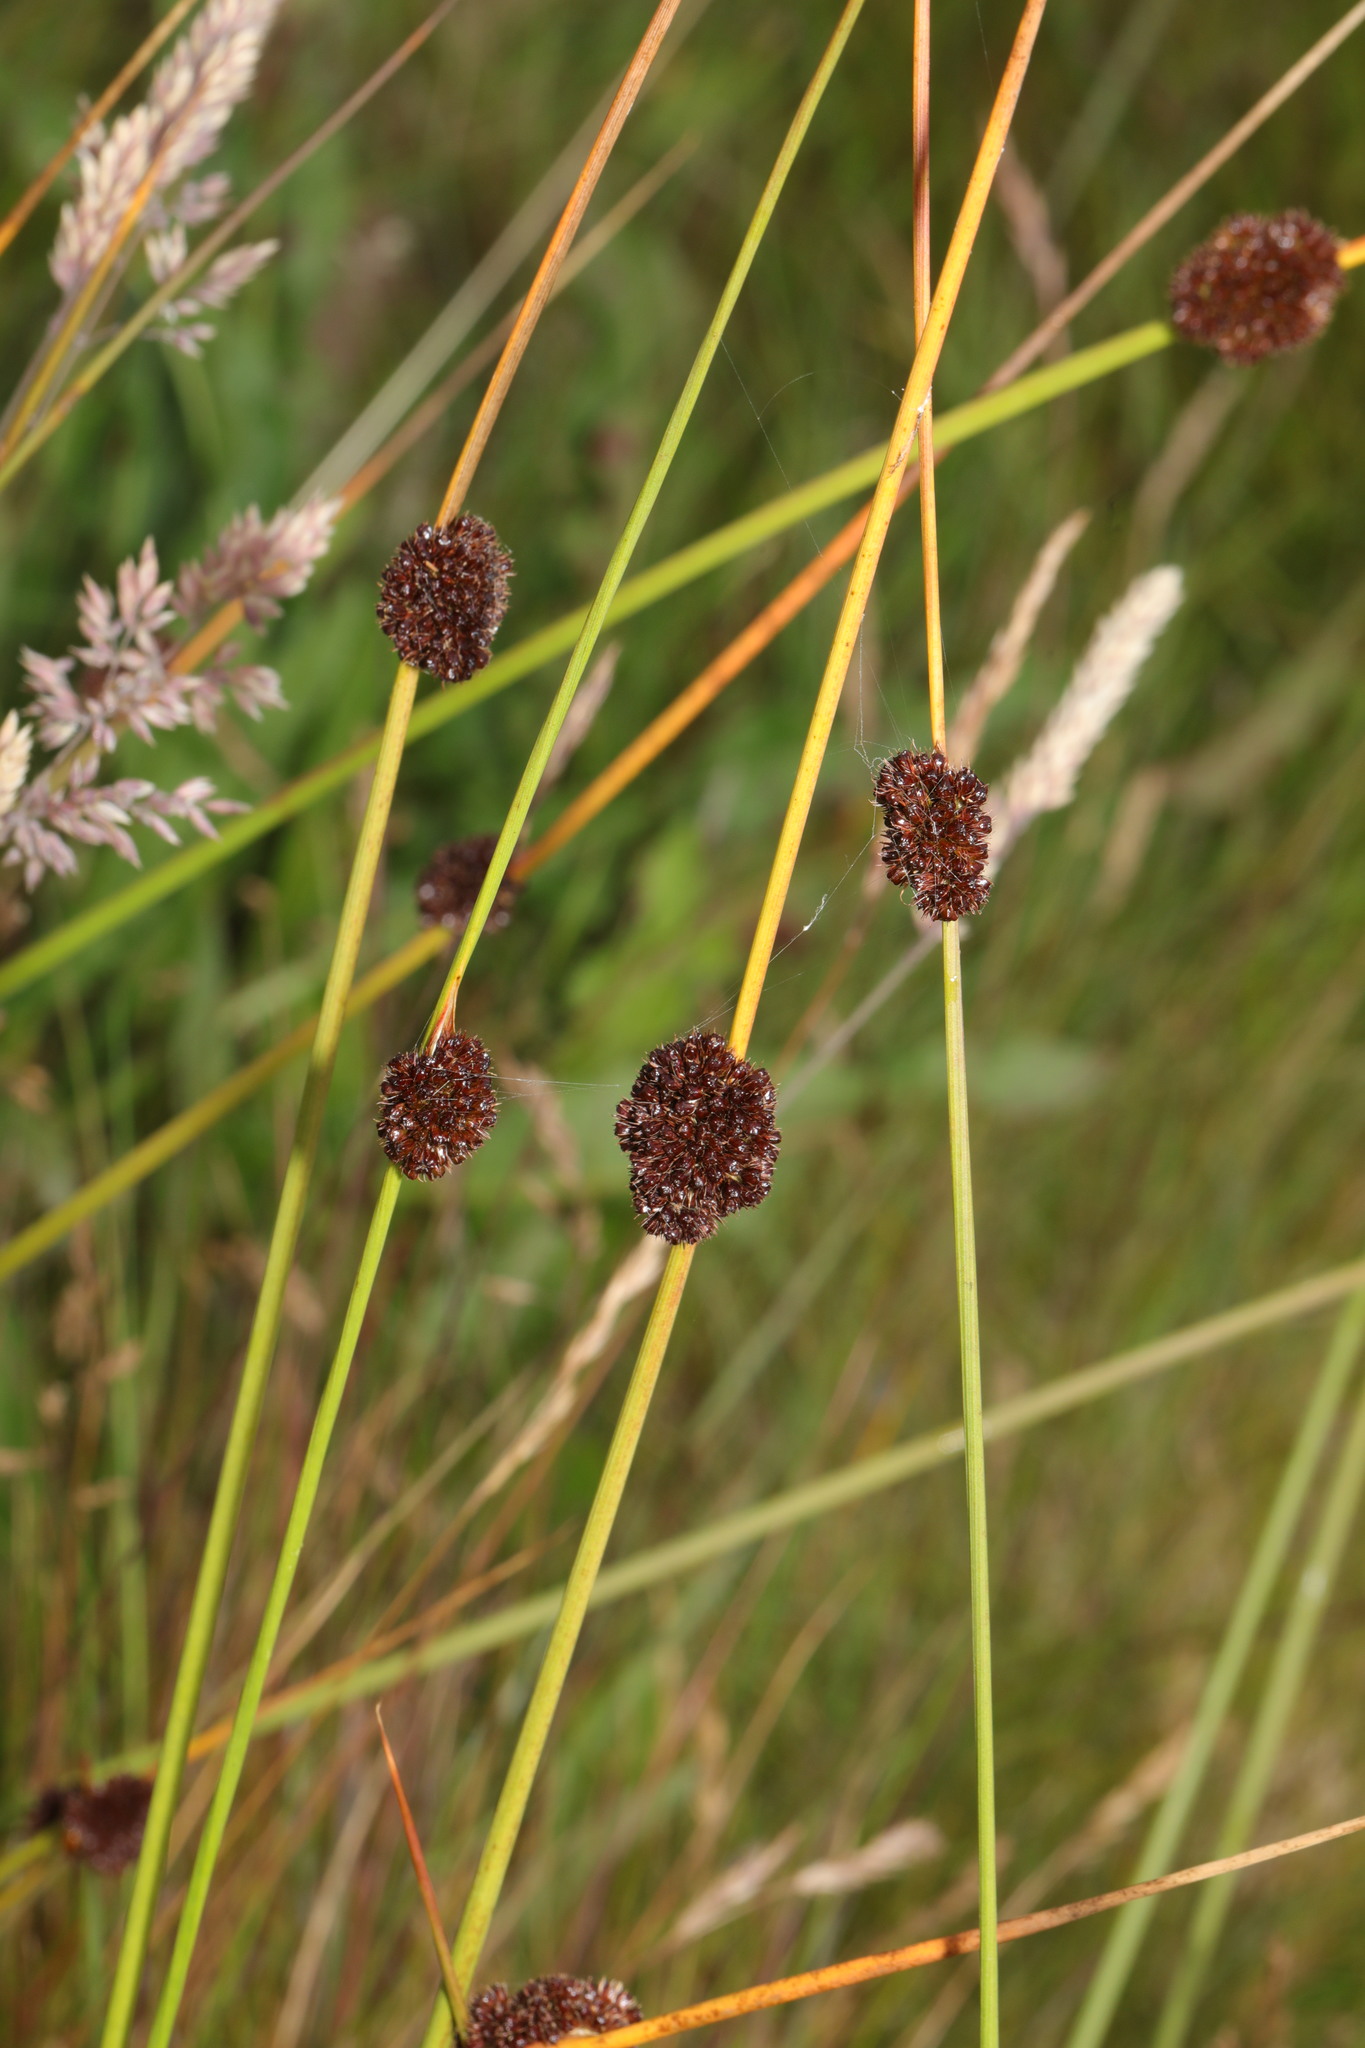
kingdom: Plantae
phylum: Tracheophyta
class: Liliopsida
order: Poales
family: Juncaceae
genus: Juncus
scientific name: Juncus conglomeratus
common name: Compact rush
